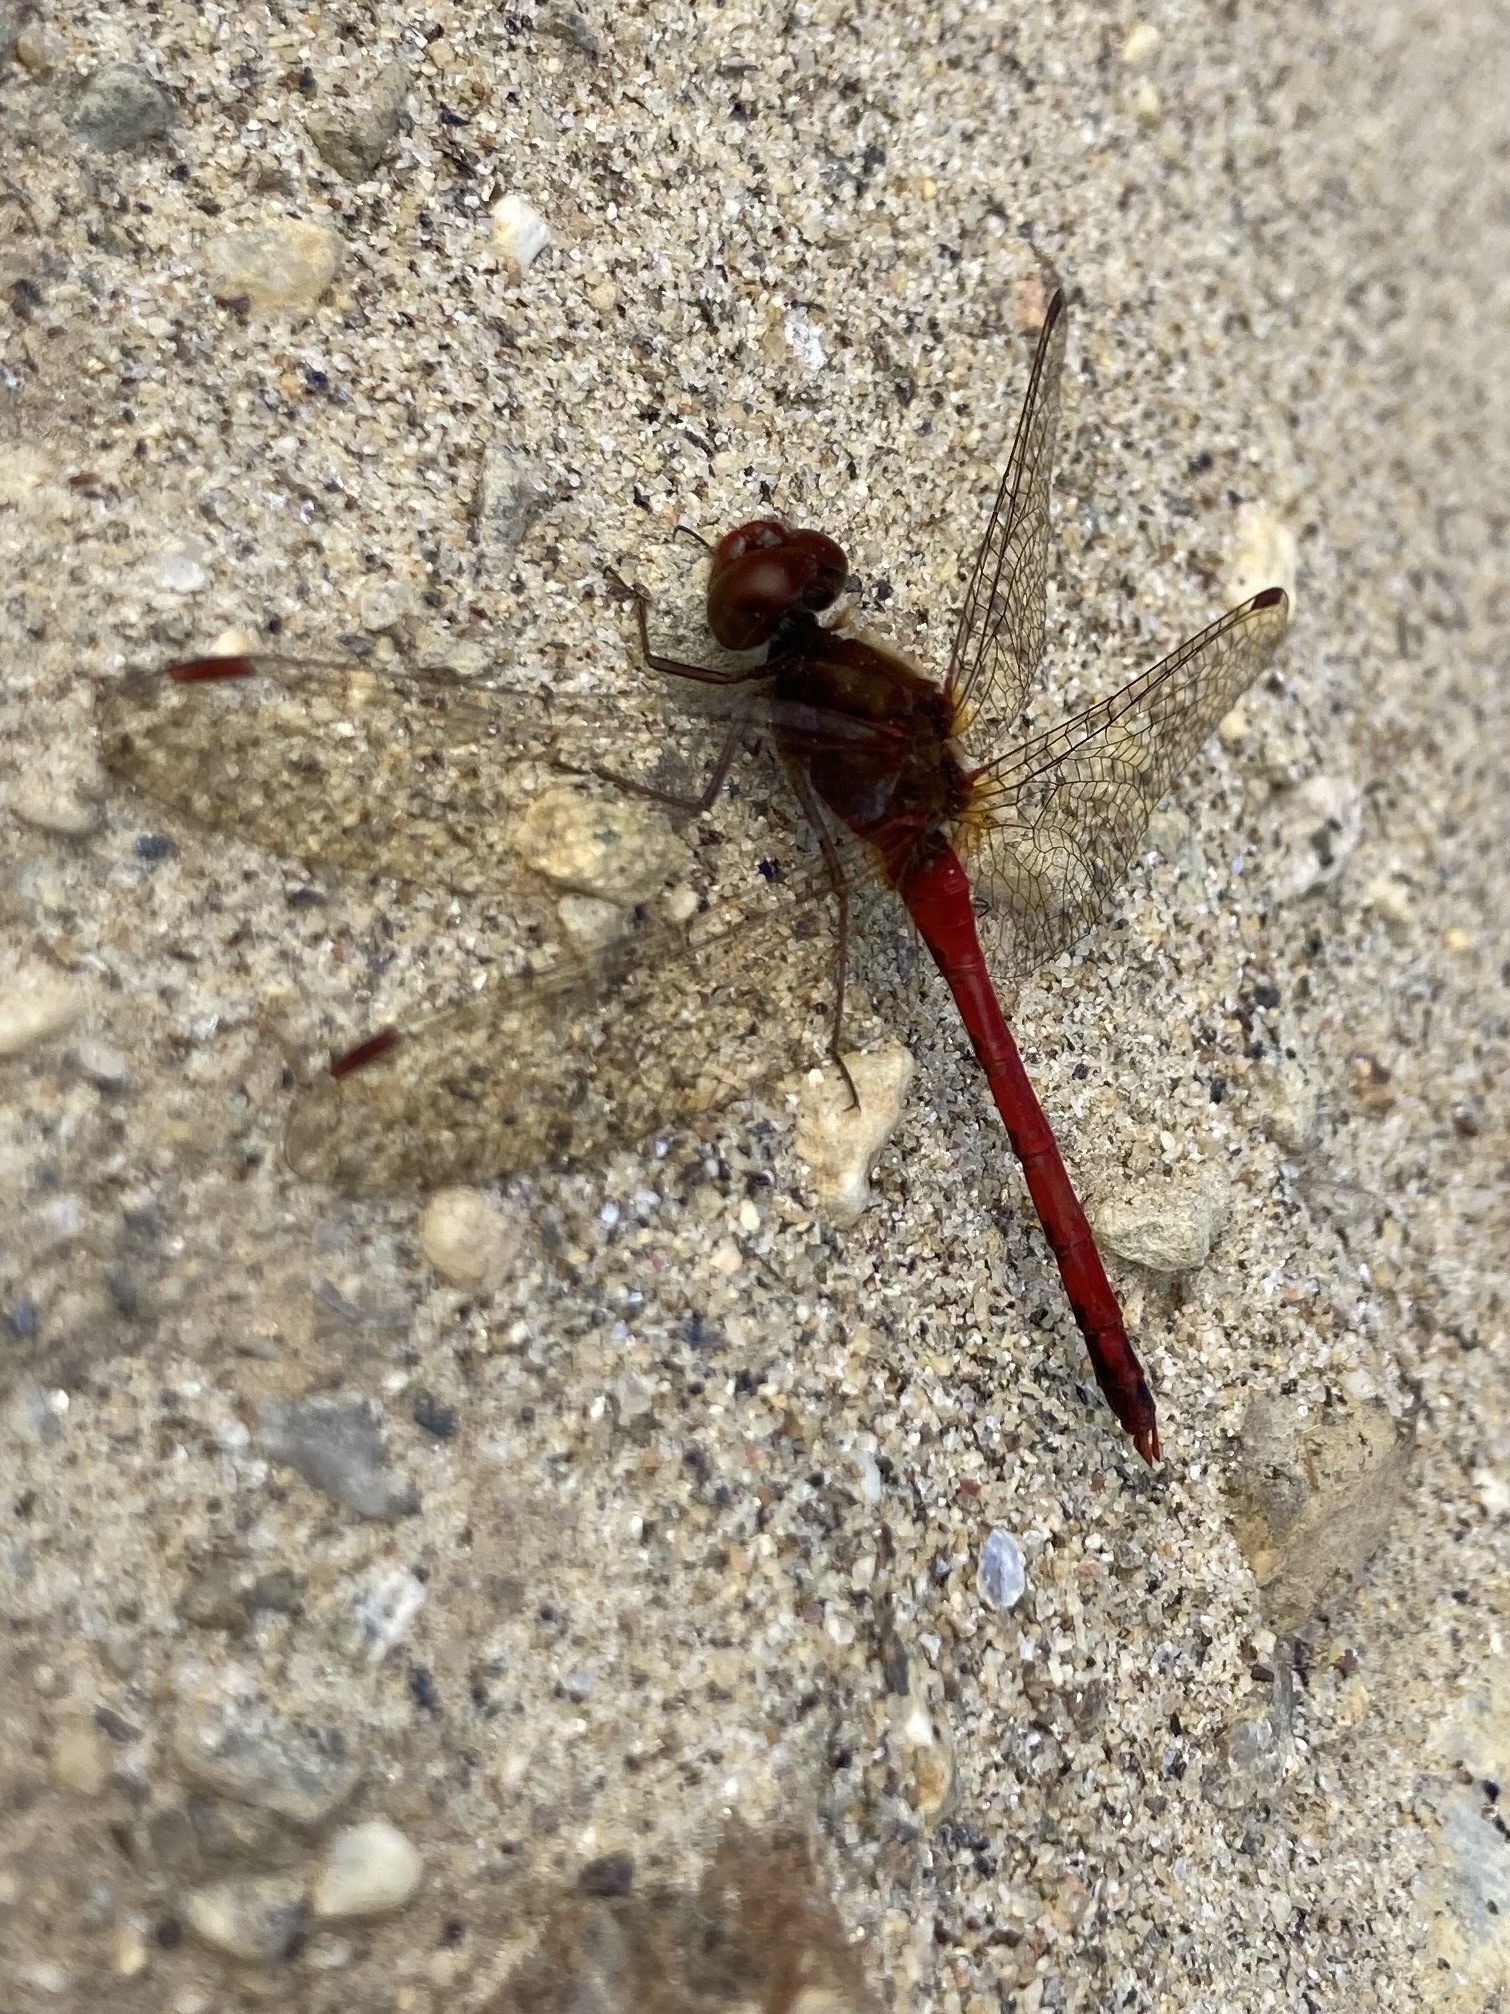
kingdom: Animalia
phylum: Arthropoda
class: Insecta
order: Odonata
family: Libellulidae
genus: Sympetrum
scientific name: Sympetrum vicinum
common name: Autumn meadowhawk
